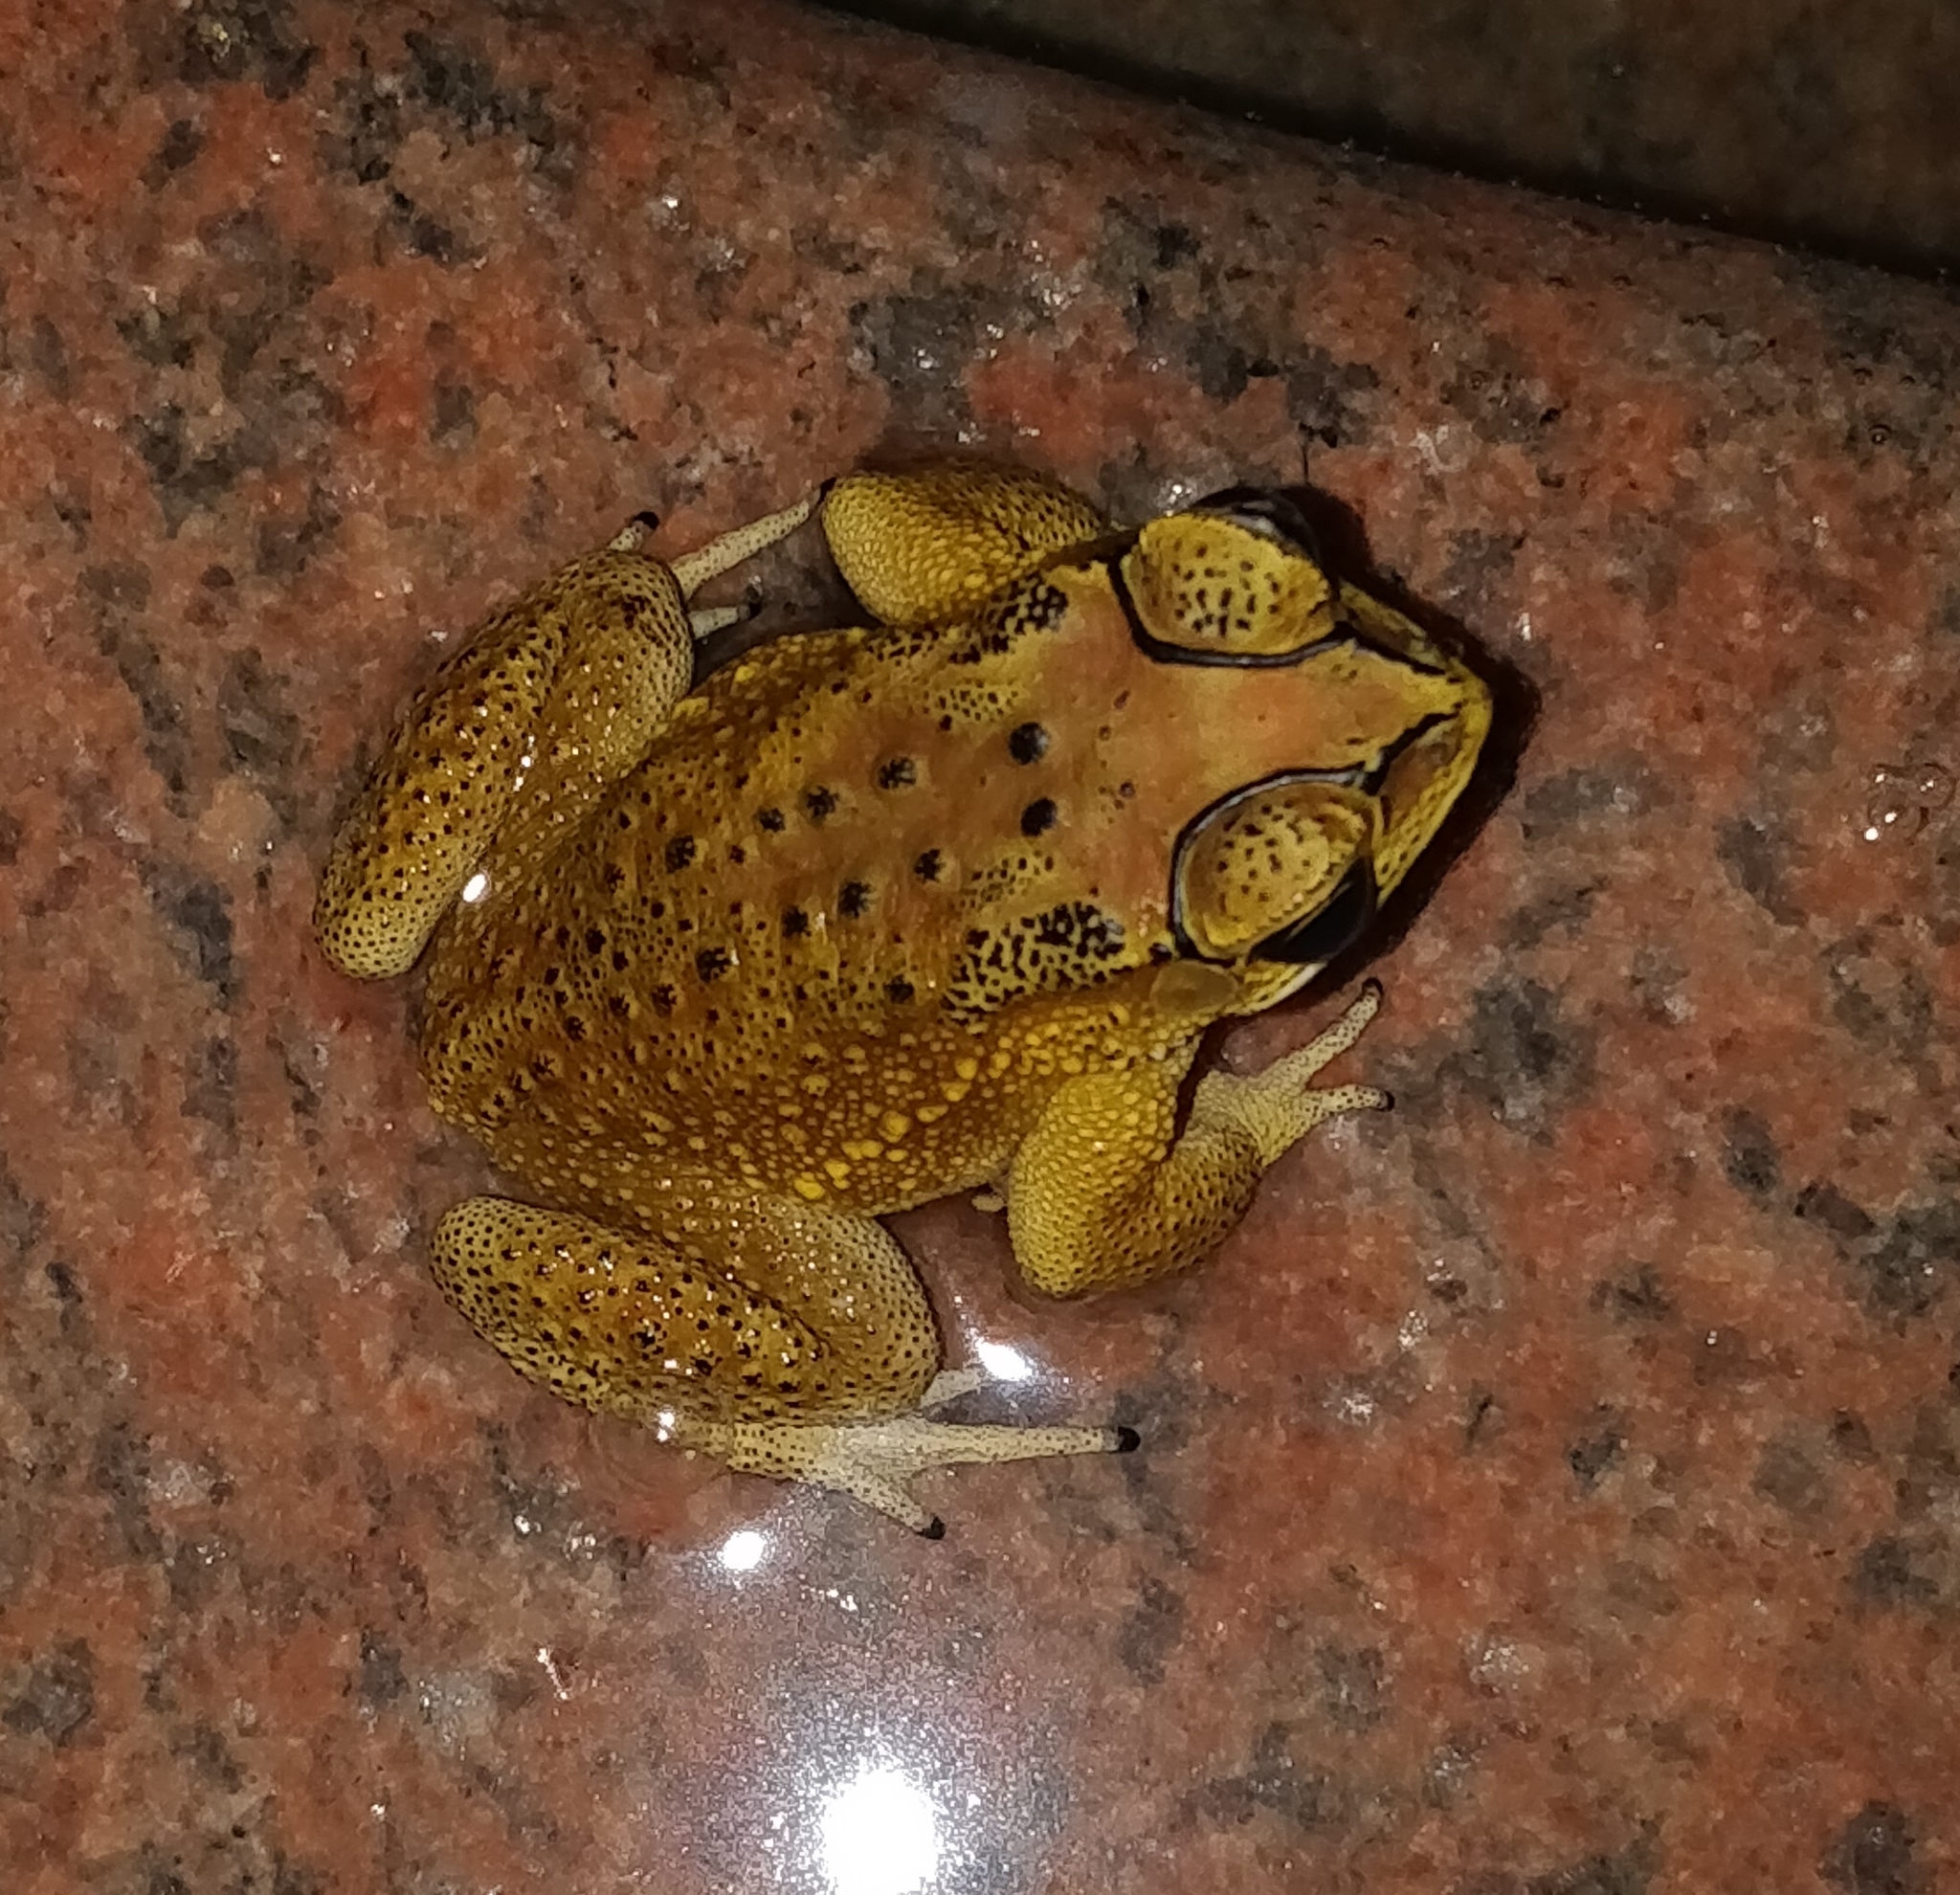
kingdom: Animalia
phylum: Chordata
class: Amphibia
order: Anura
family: Bufonidae
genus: Duttaphrynus
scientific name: Duttaphrynus melanostictus
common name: Common sunda toad
